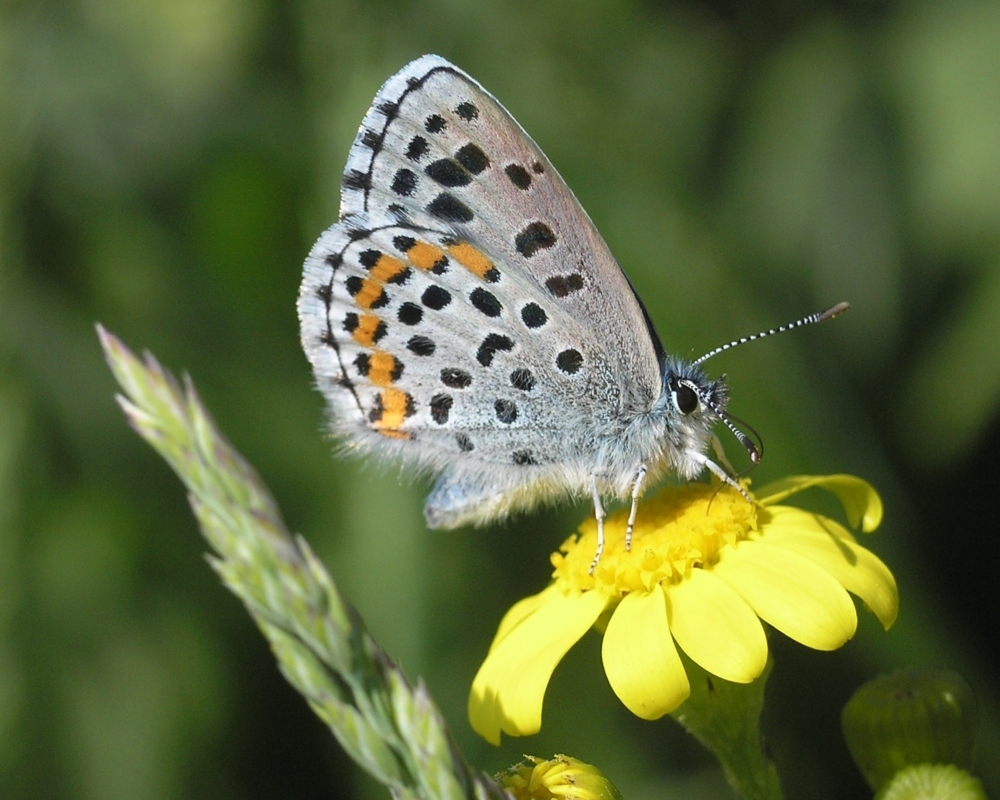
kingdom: Animalia
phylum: Arthropoda
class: Insecta
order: Lepidoptera
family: Lycaenidae
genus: Pseudophilotes
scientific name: Pseudophilotes bavius
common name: Bavius blue
